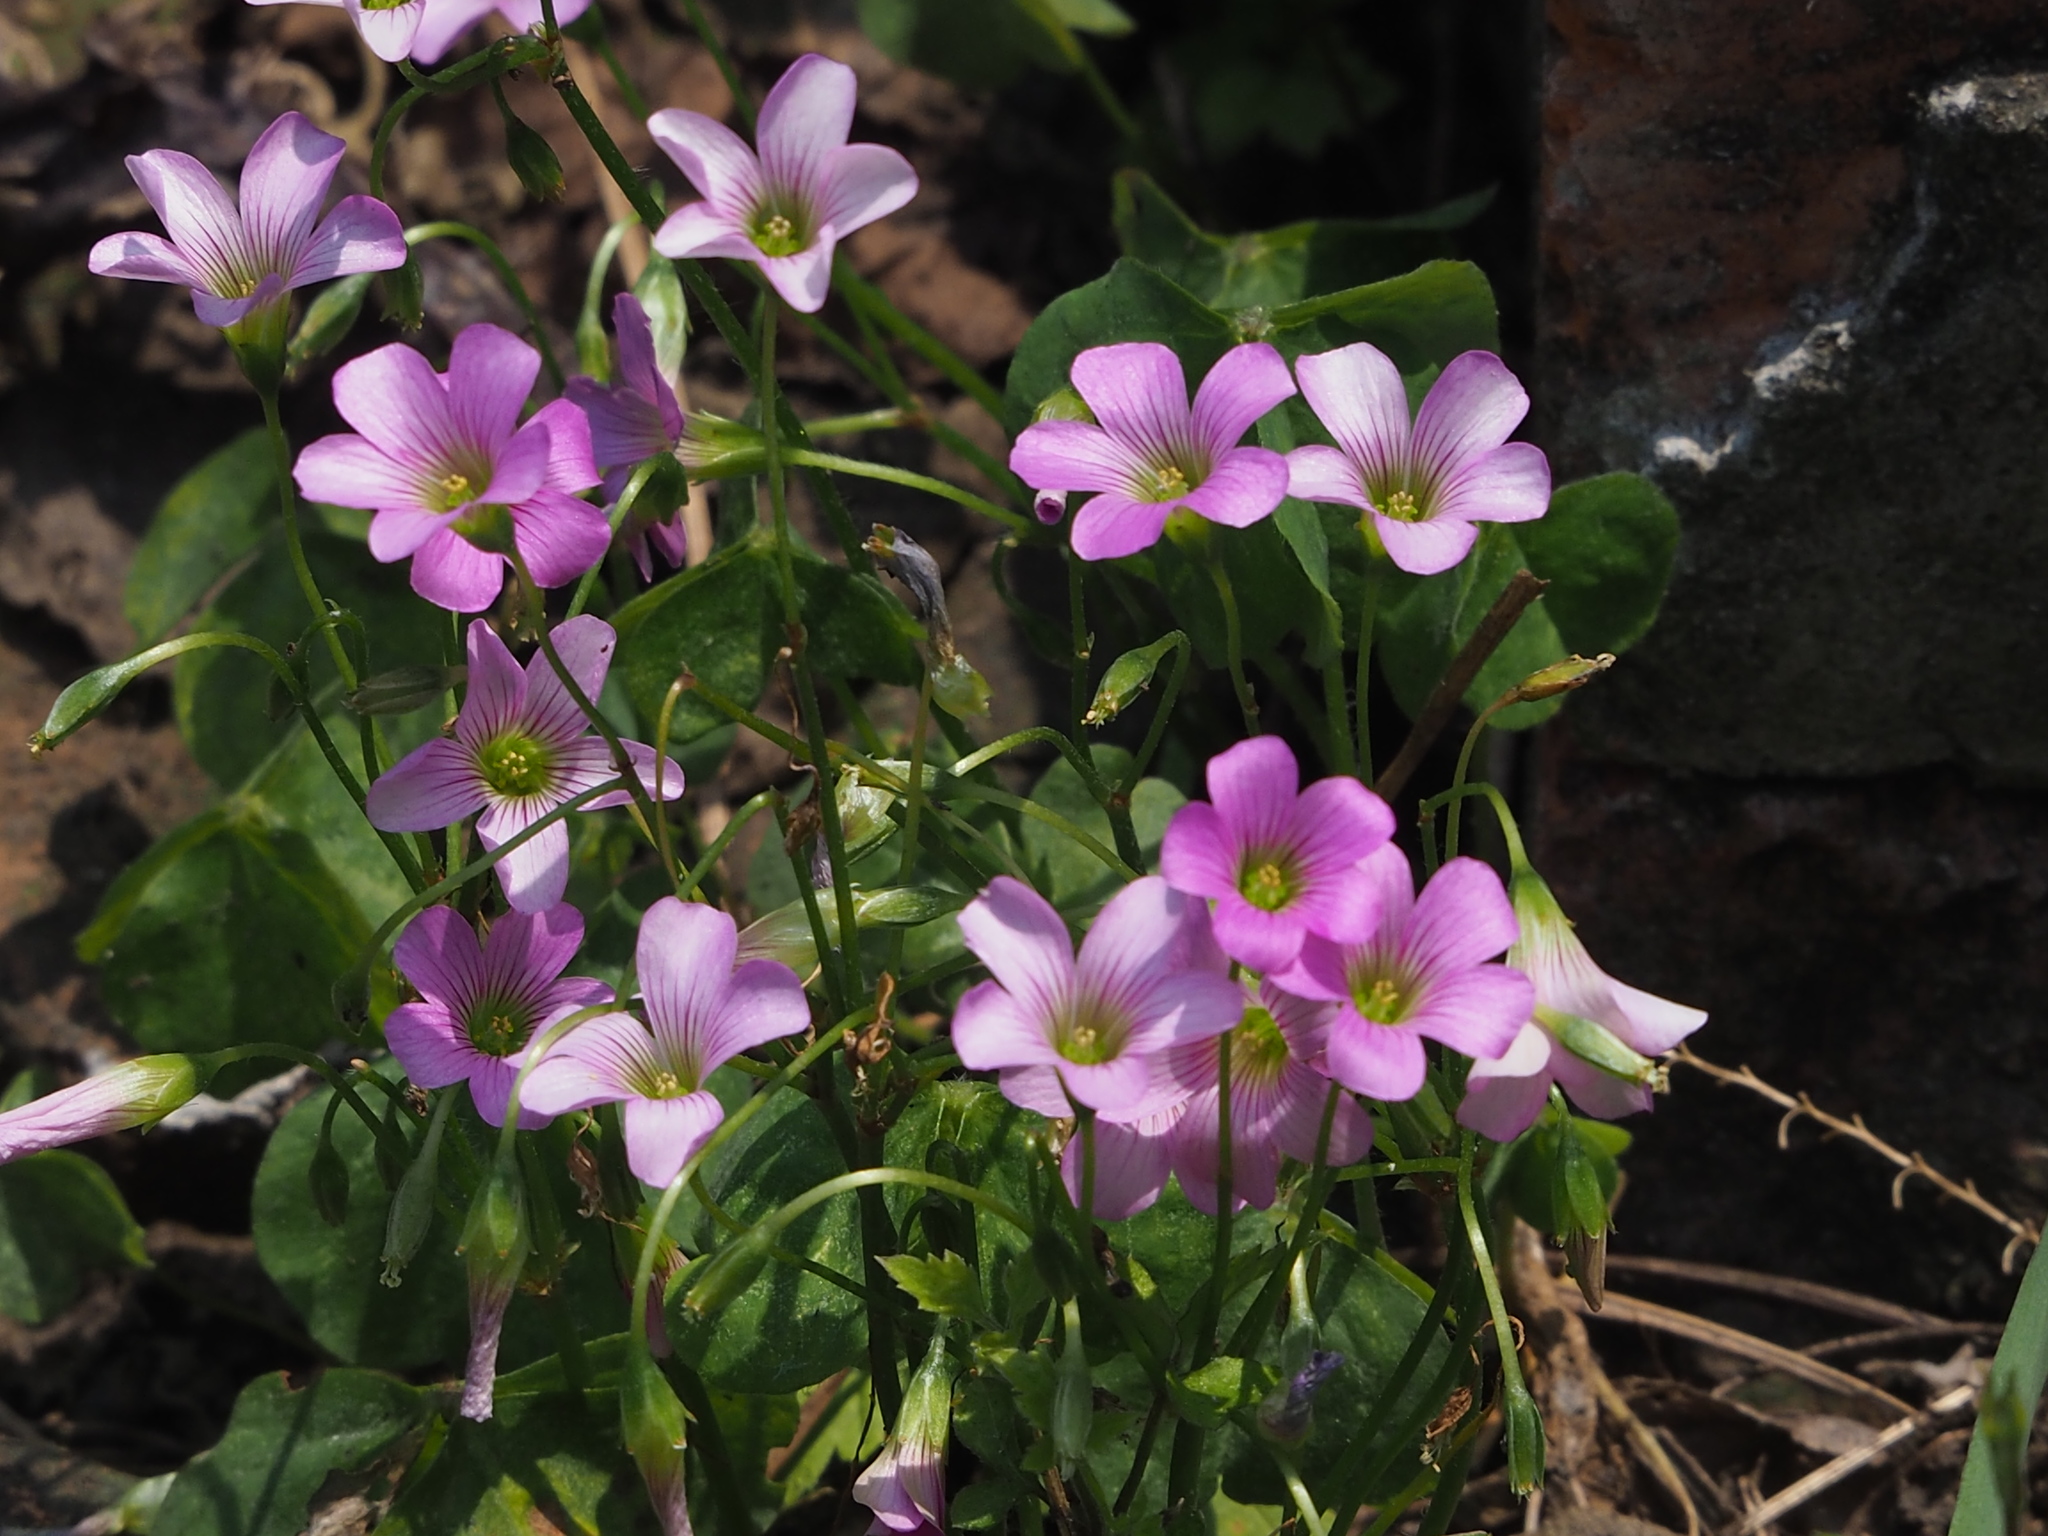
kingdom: Plantae
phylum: Tracheophyta
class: Magnoliopsida
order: Oxalidales
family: Oxalidaceae
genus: Oxalis
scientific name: Oxalis debilis
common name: Large-flowered pink-sorrel
